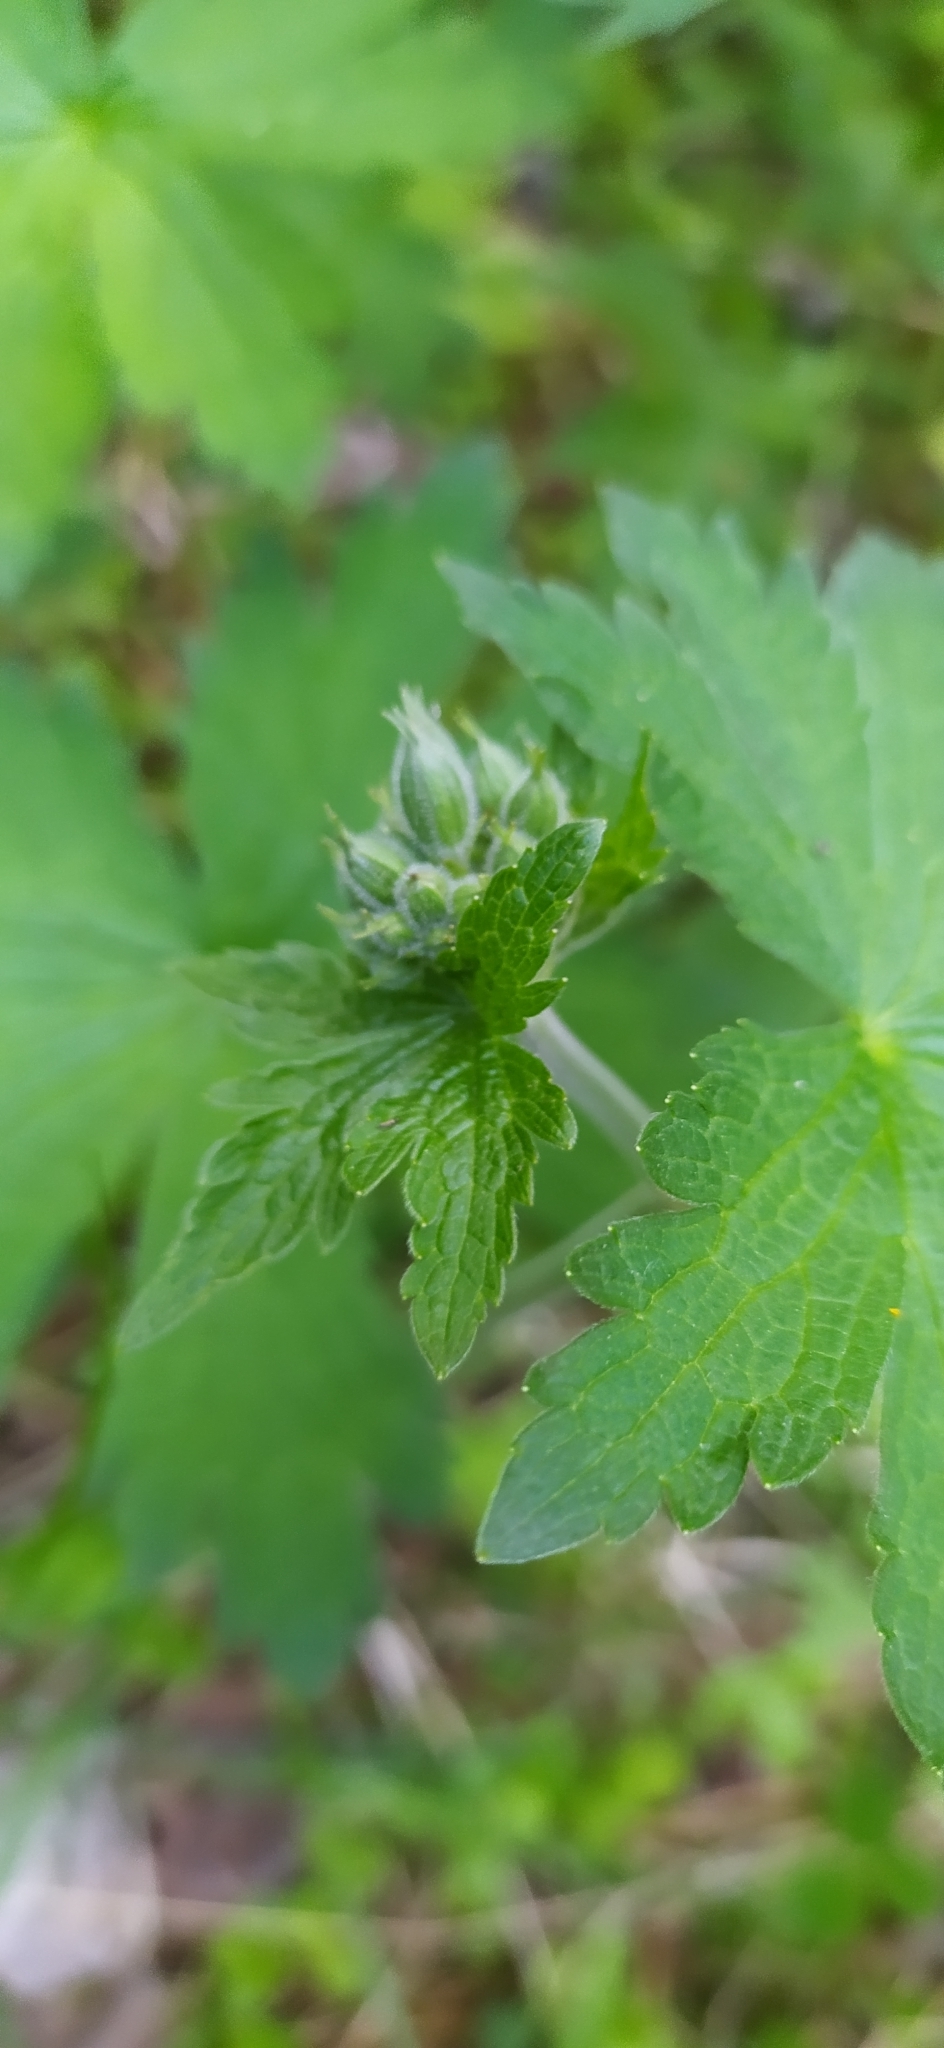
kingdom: Plantae
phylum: Tracheophyta
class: Magnoliopsida
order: Geraniales
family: Geraniaceae
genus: Geranium
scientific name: Geranium sylvaticum
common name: Wood crane's-bill
